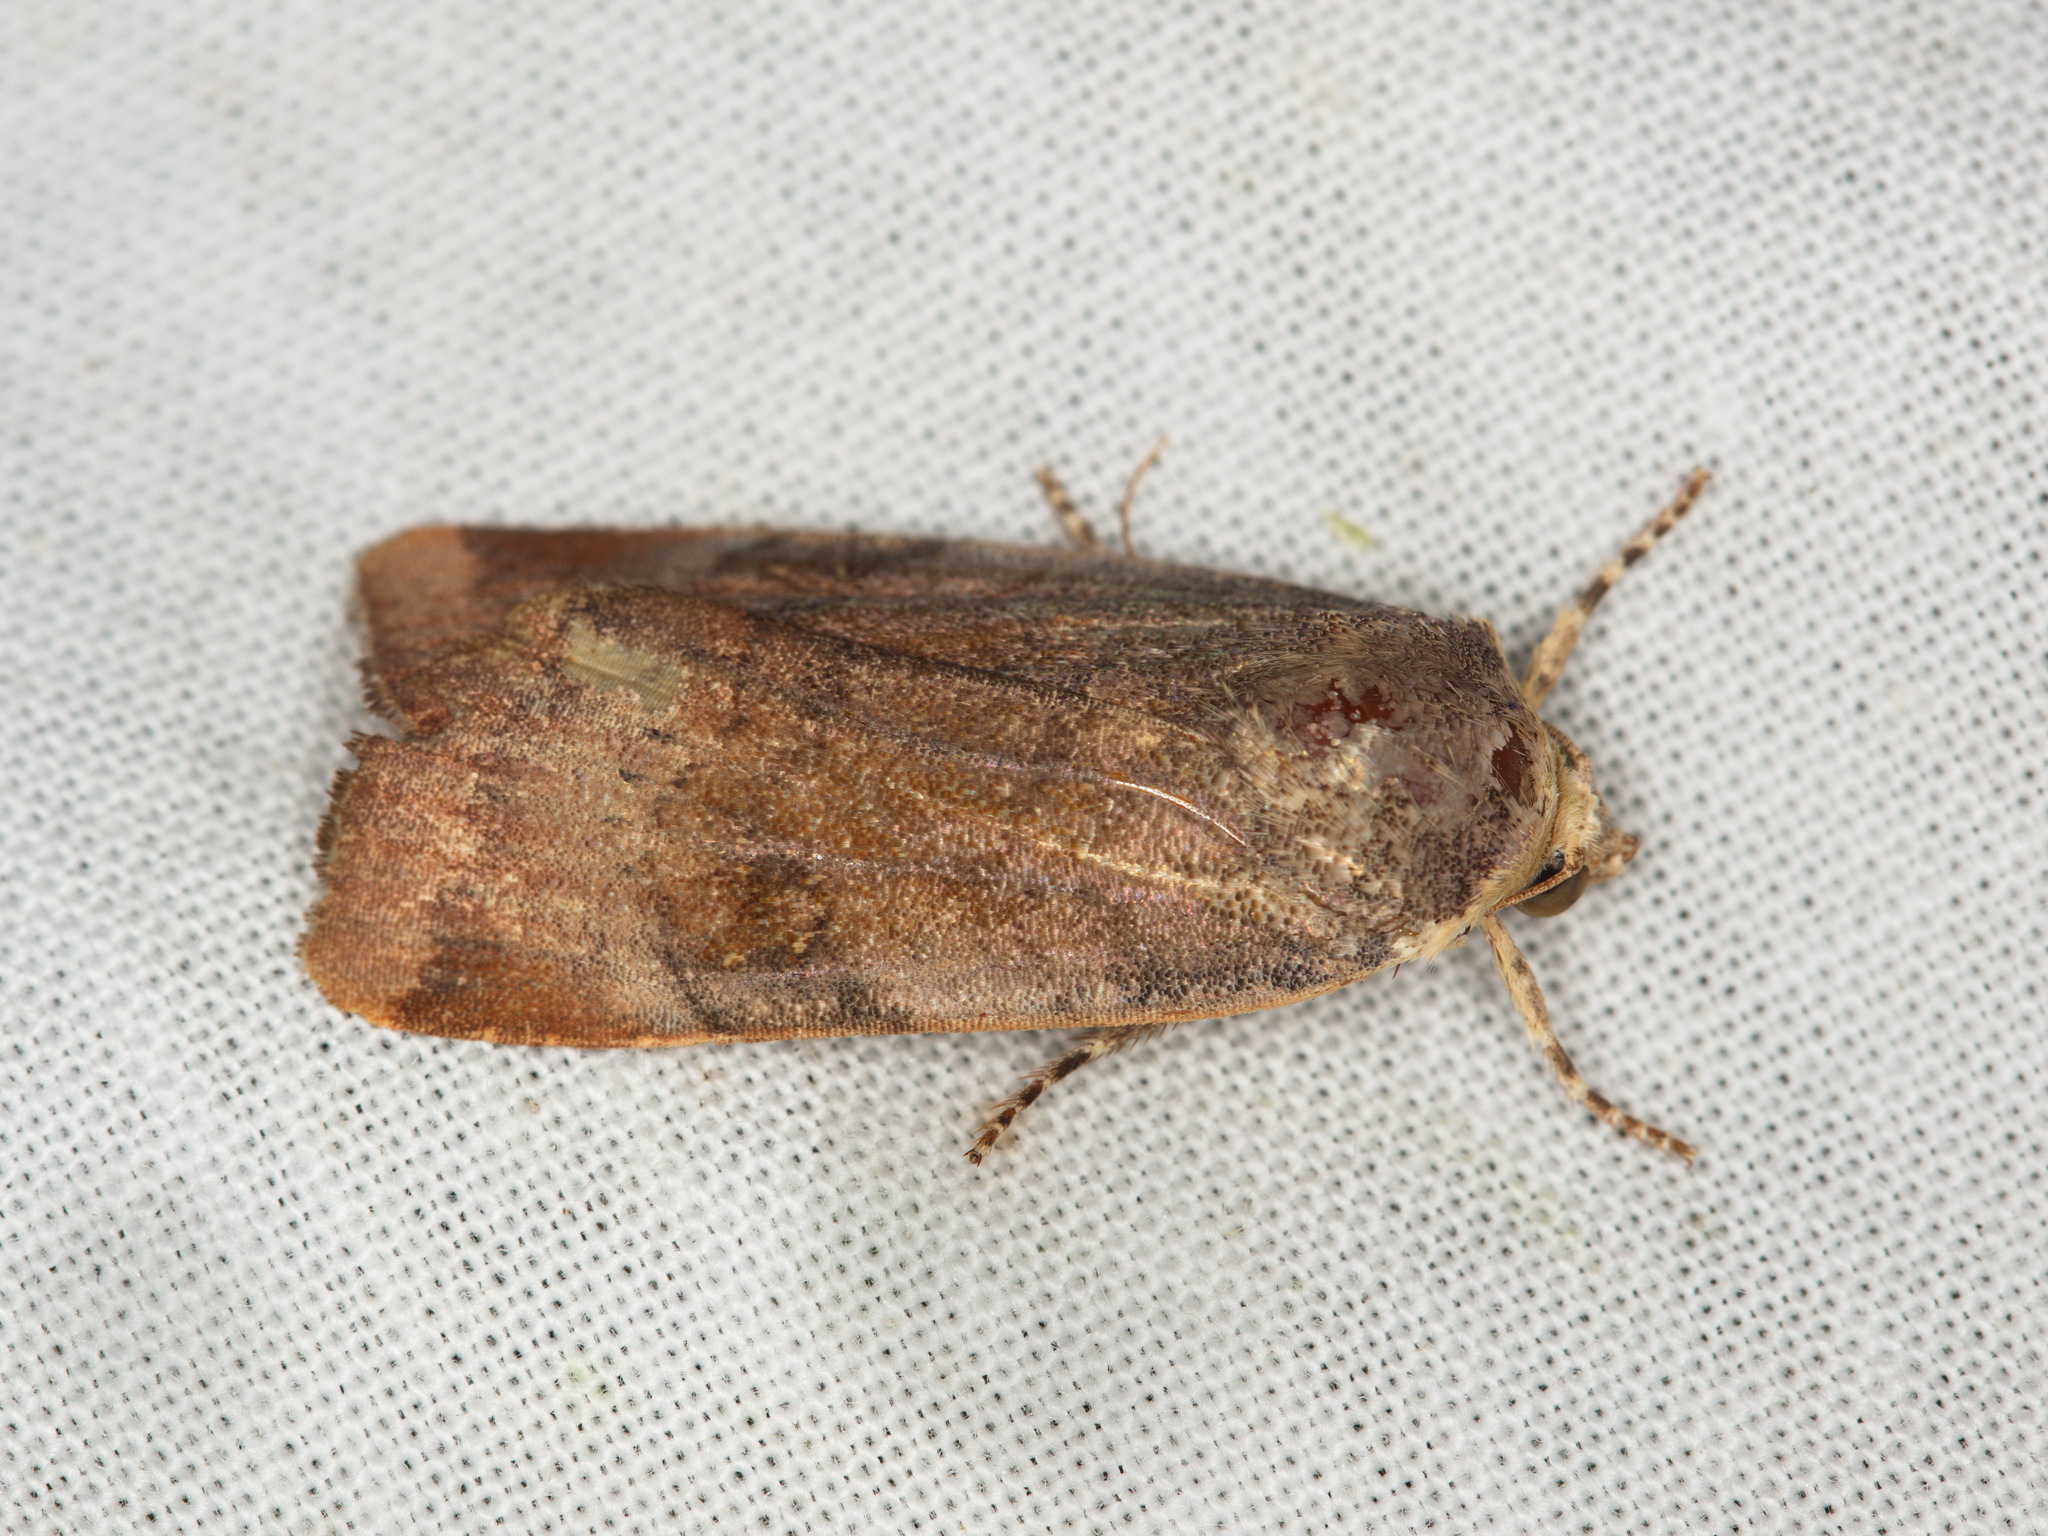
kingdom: Animalia
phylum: Arthropoda
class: Insecta
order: Lepidoptera
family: Noctuidae
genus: Noctua
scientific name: Noctua
